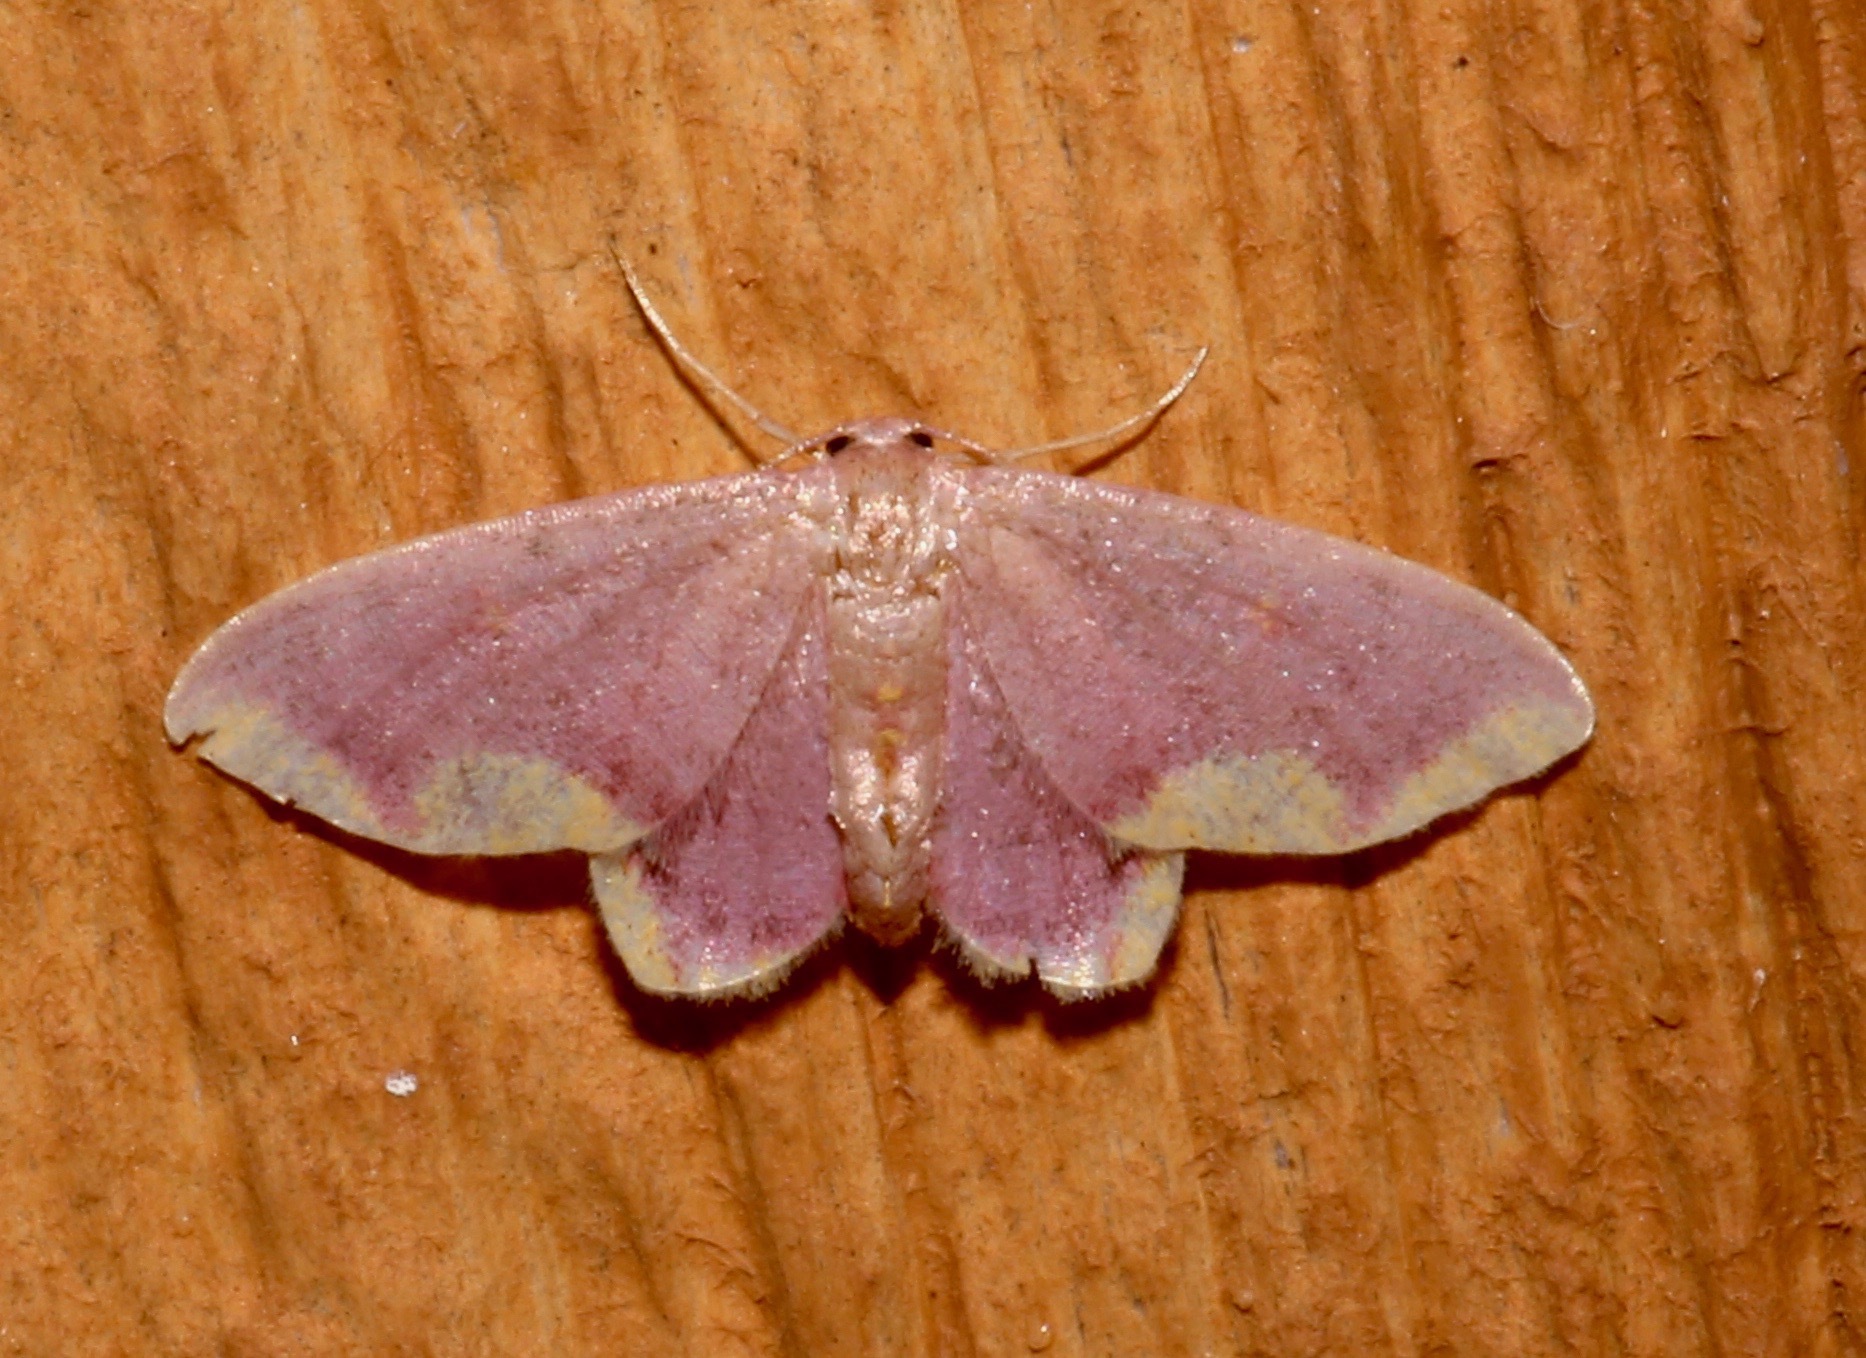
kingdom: Animalia
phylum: Arthropoda
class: Insecta
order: Lepidoptera
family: Geometridae
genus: Lophosis
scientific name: Lophosis labeculata
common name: Stained lophosis moth
